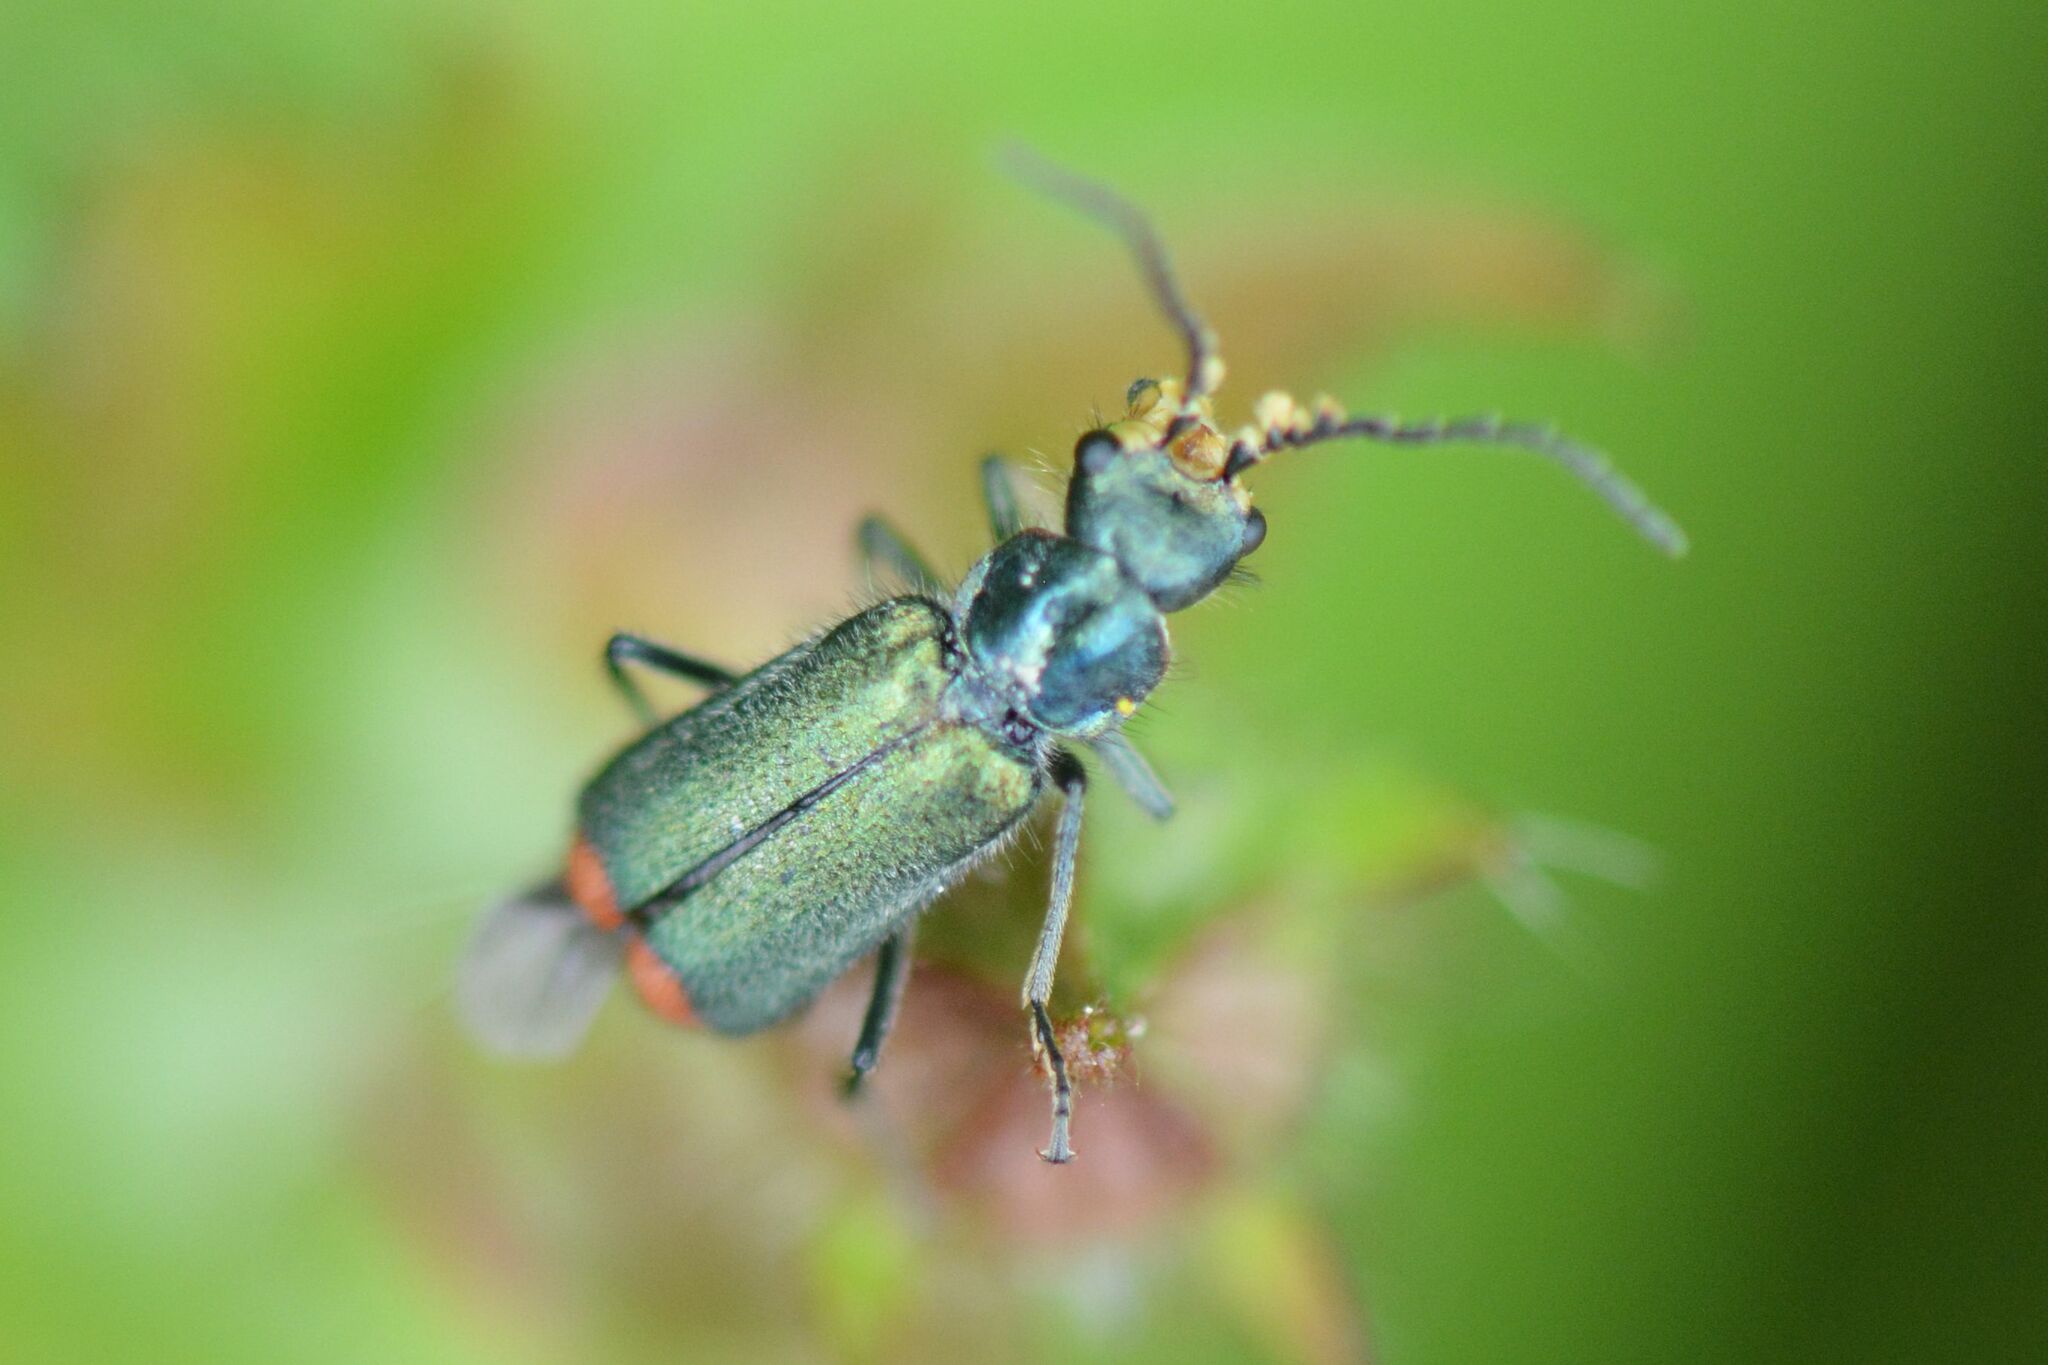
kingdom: Animalia
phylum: Arthropoda
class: Insecta
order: Coleoptera
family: Melyridae
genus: Malachius
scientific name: Malachius bipustulatus
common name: Malachite beetle
